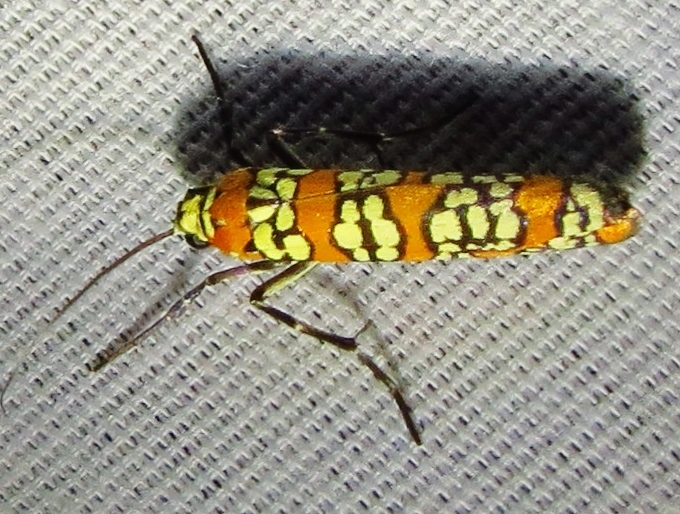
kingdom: Animalia
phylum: Arthropoda
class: Insecta
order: Lepidoptera
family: Attevidae
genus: Atteva
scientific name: Atteva punctella
